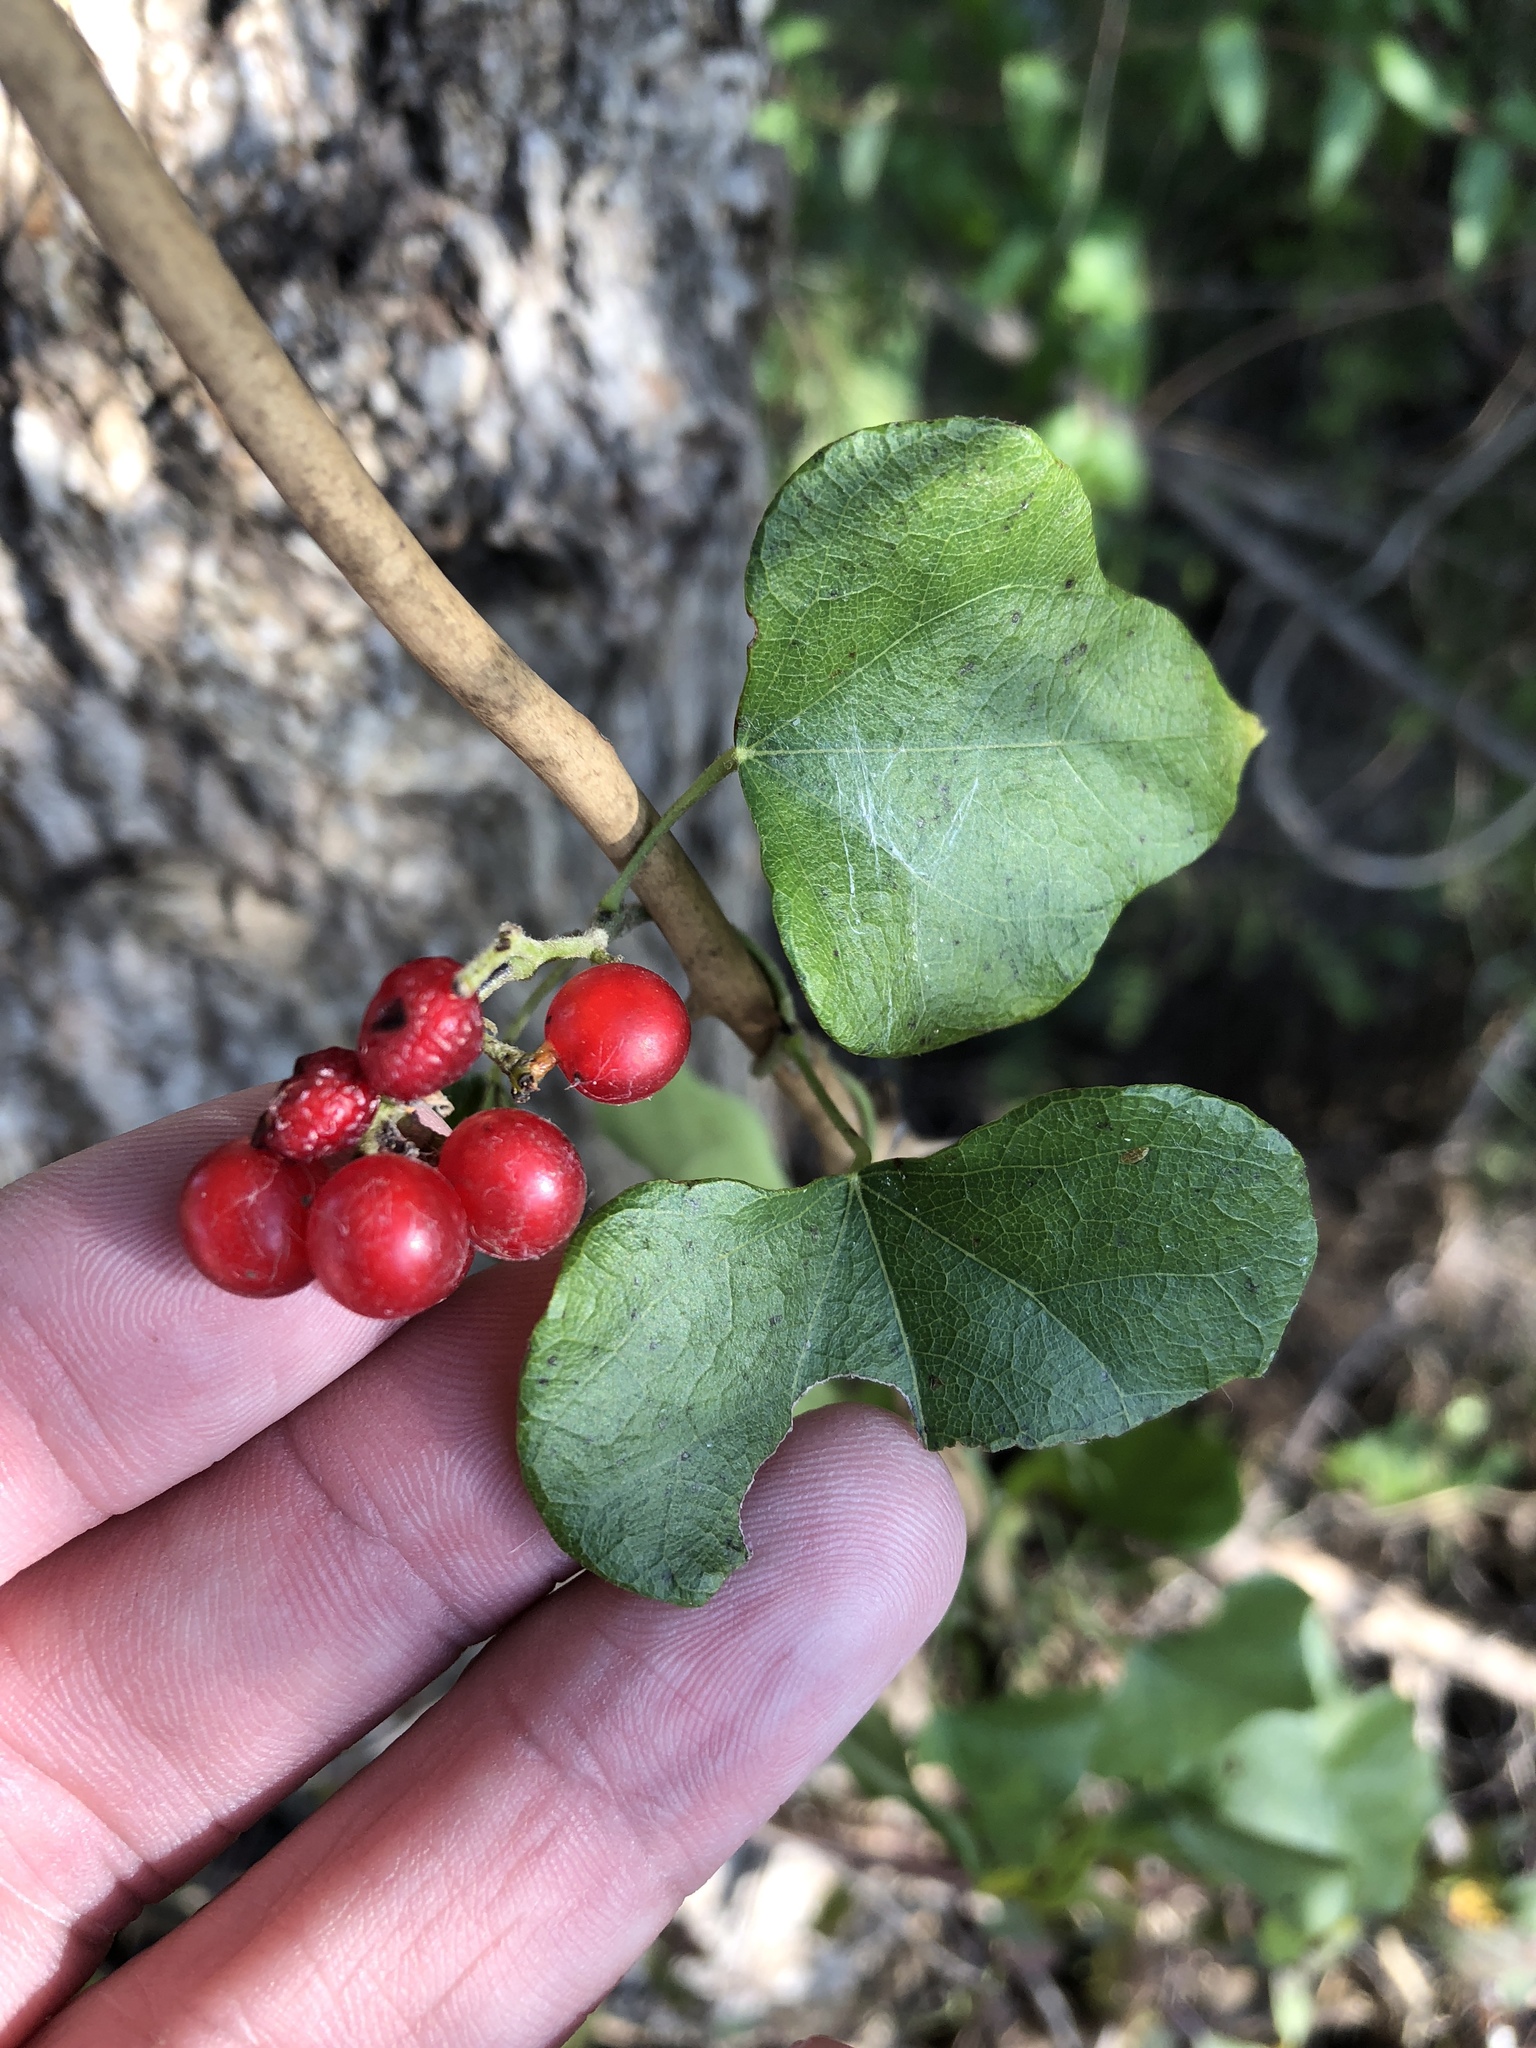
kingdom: Plantae
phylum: Tracheophyta
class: Magnoliopsida
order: Ranunculales
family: Menispermaceae
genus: Cocculus
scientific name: Cocculus carolinus
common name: Carolina moonseed
